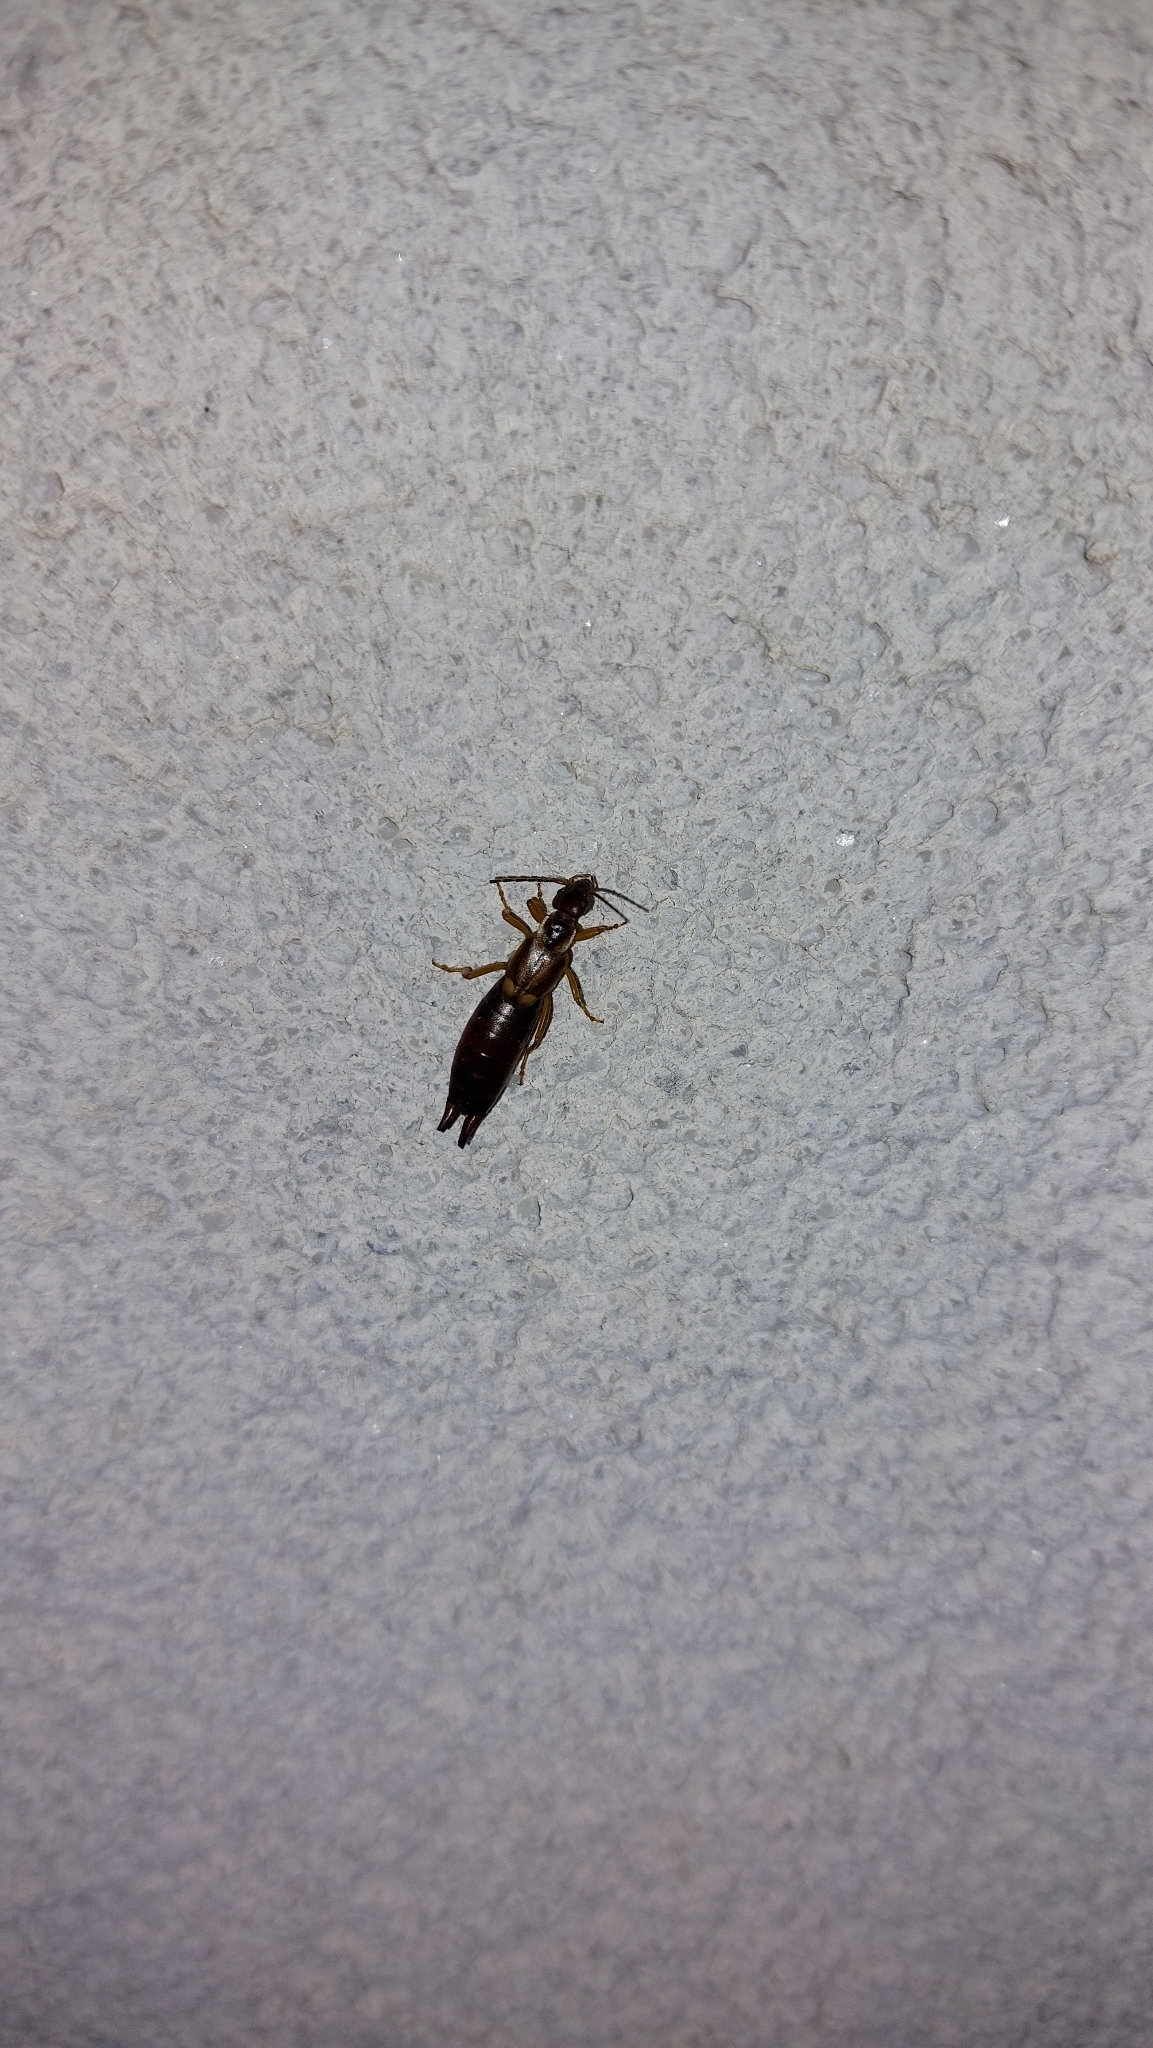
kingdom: Animalia
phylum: Arthropoda
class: Insecta
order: Dermaptera
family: Forficulidae
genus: Forficula
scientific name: Forficula
